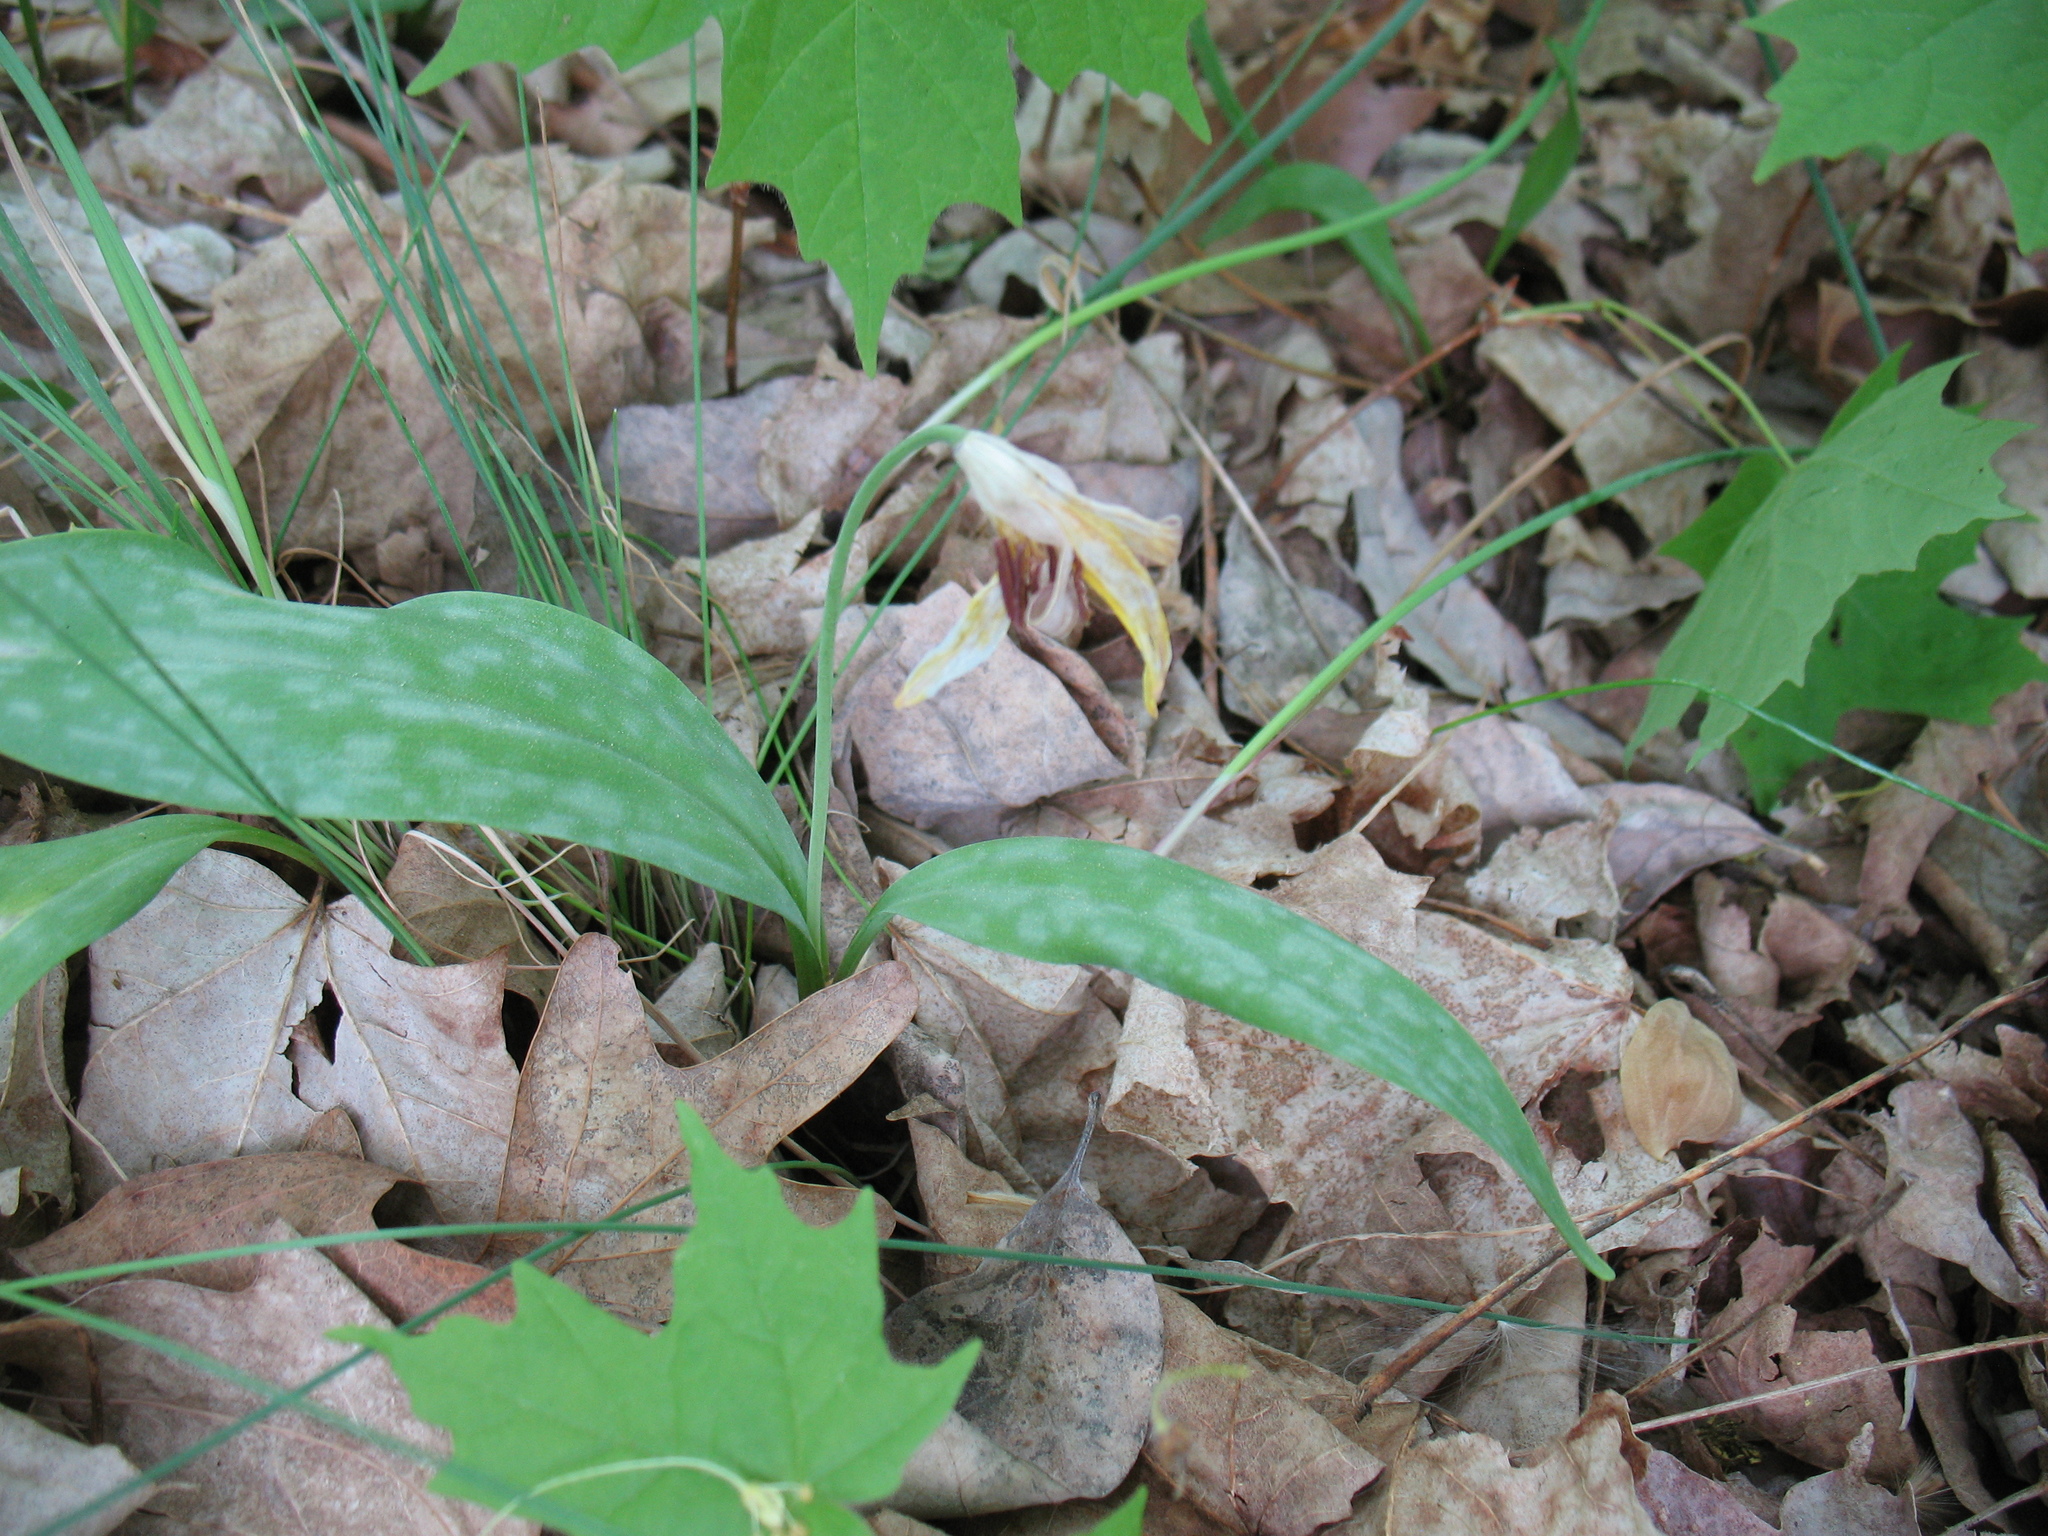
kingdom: Plantae
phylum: Tracheophyta
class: Liliopsida
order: Liliales
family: Liliaceae
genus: Erythronium
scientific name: Erythronium americanum
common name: Yellow adder's-tongue
